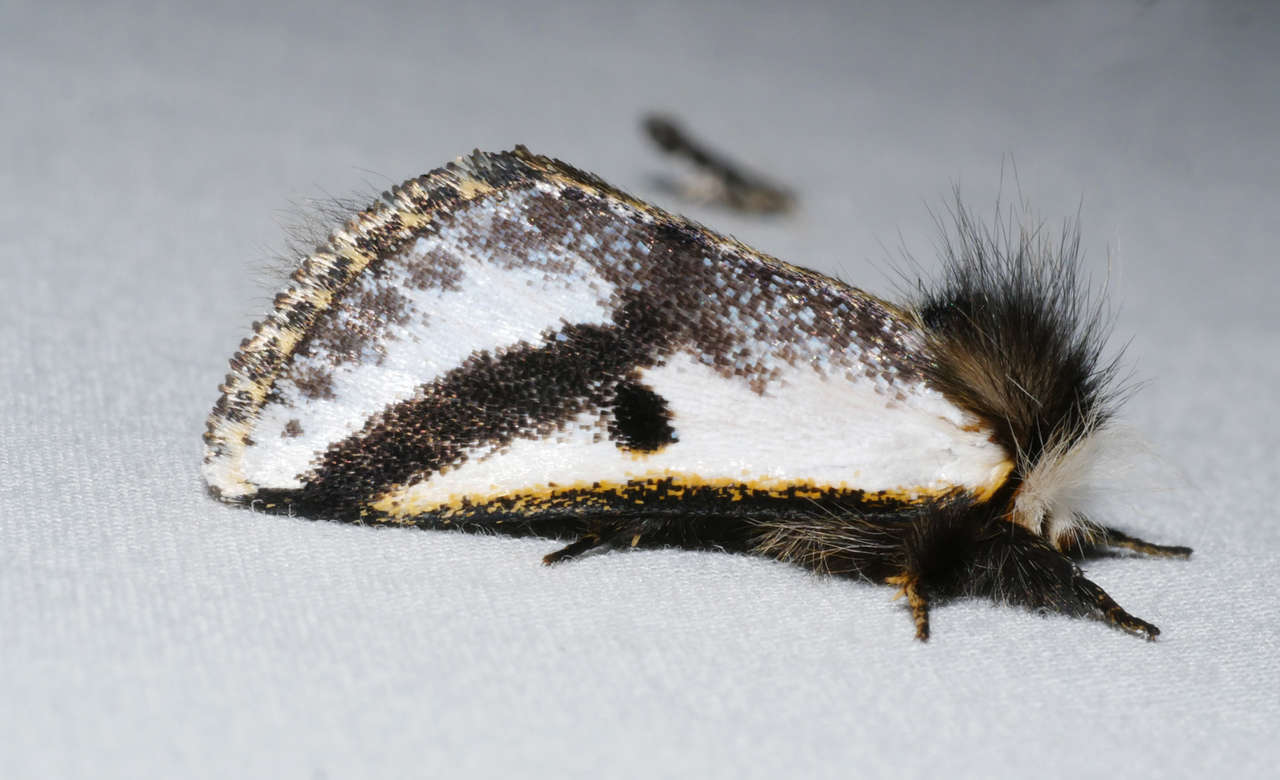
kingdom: Animalia
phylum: Arthropoda
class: Insecta
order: Lepidoptera
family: Notodontidae
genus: Epicoma
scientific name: Epicoma melanospila
